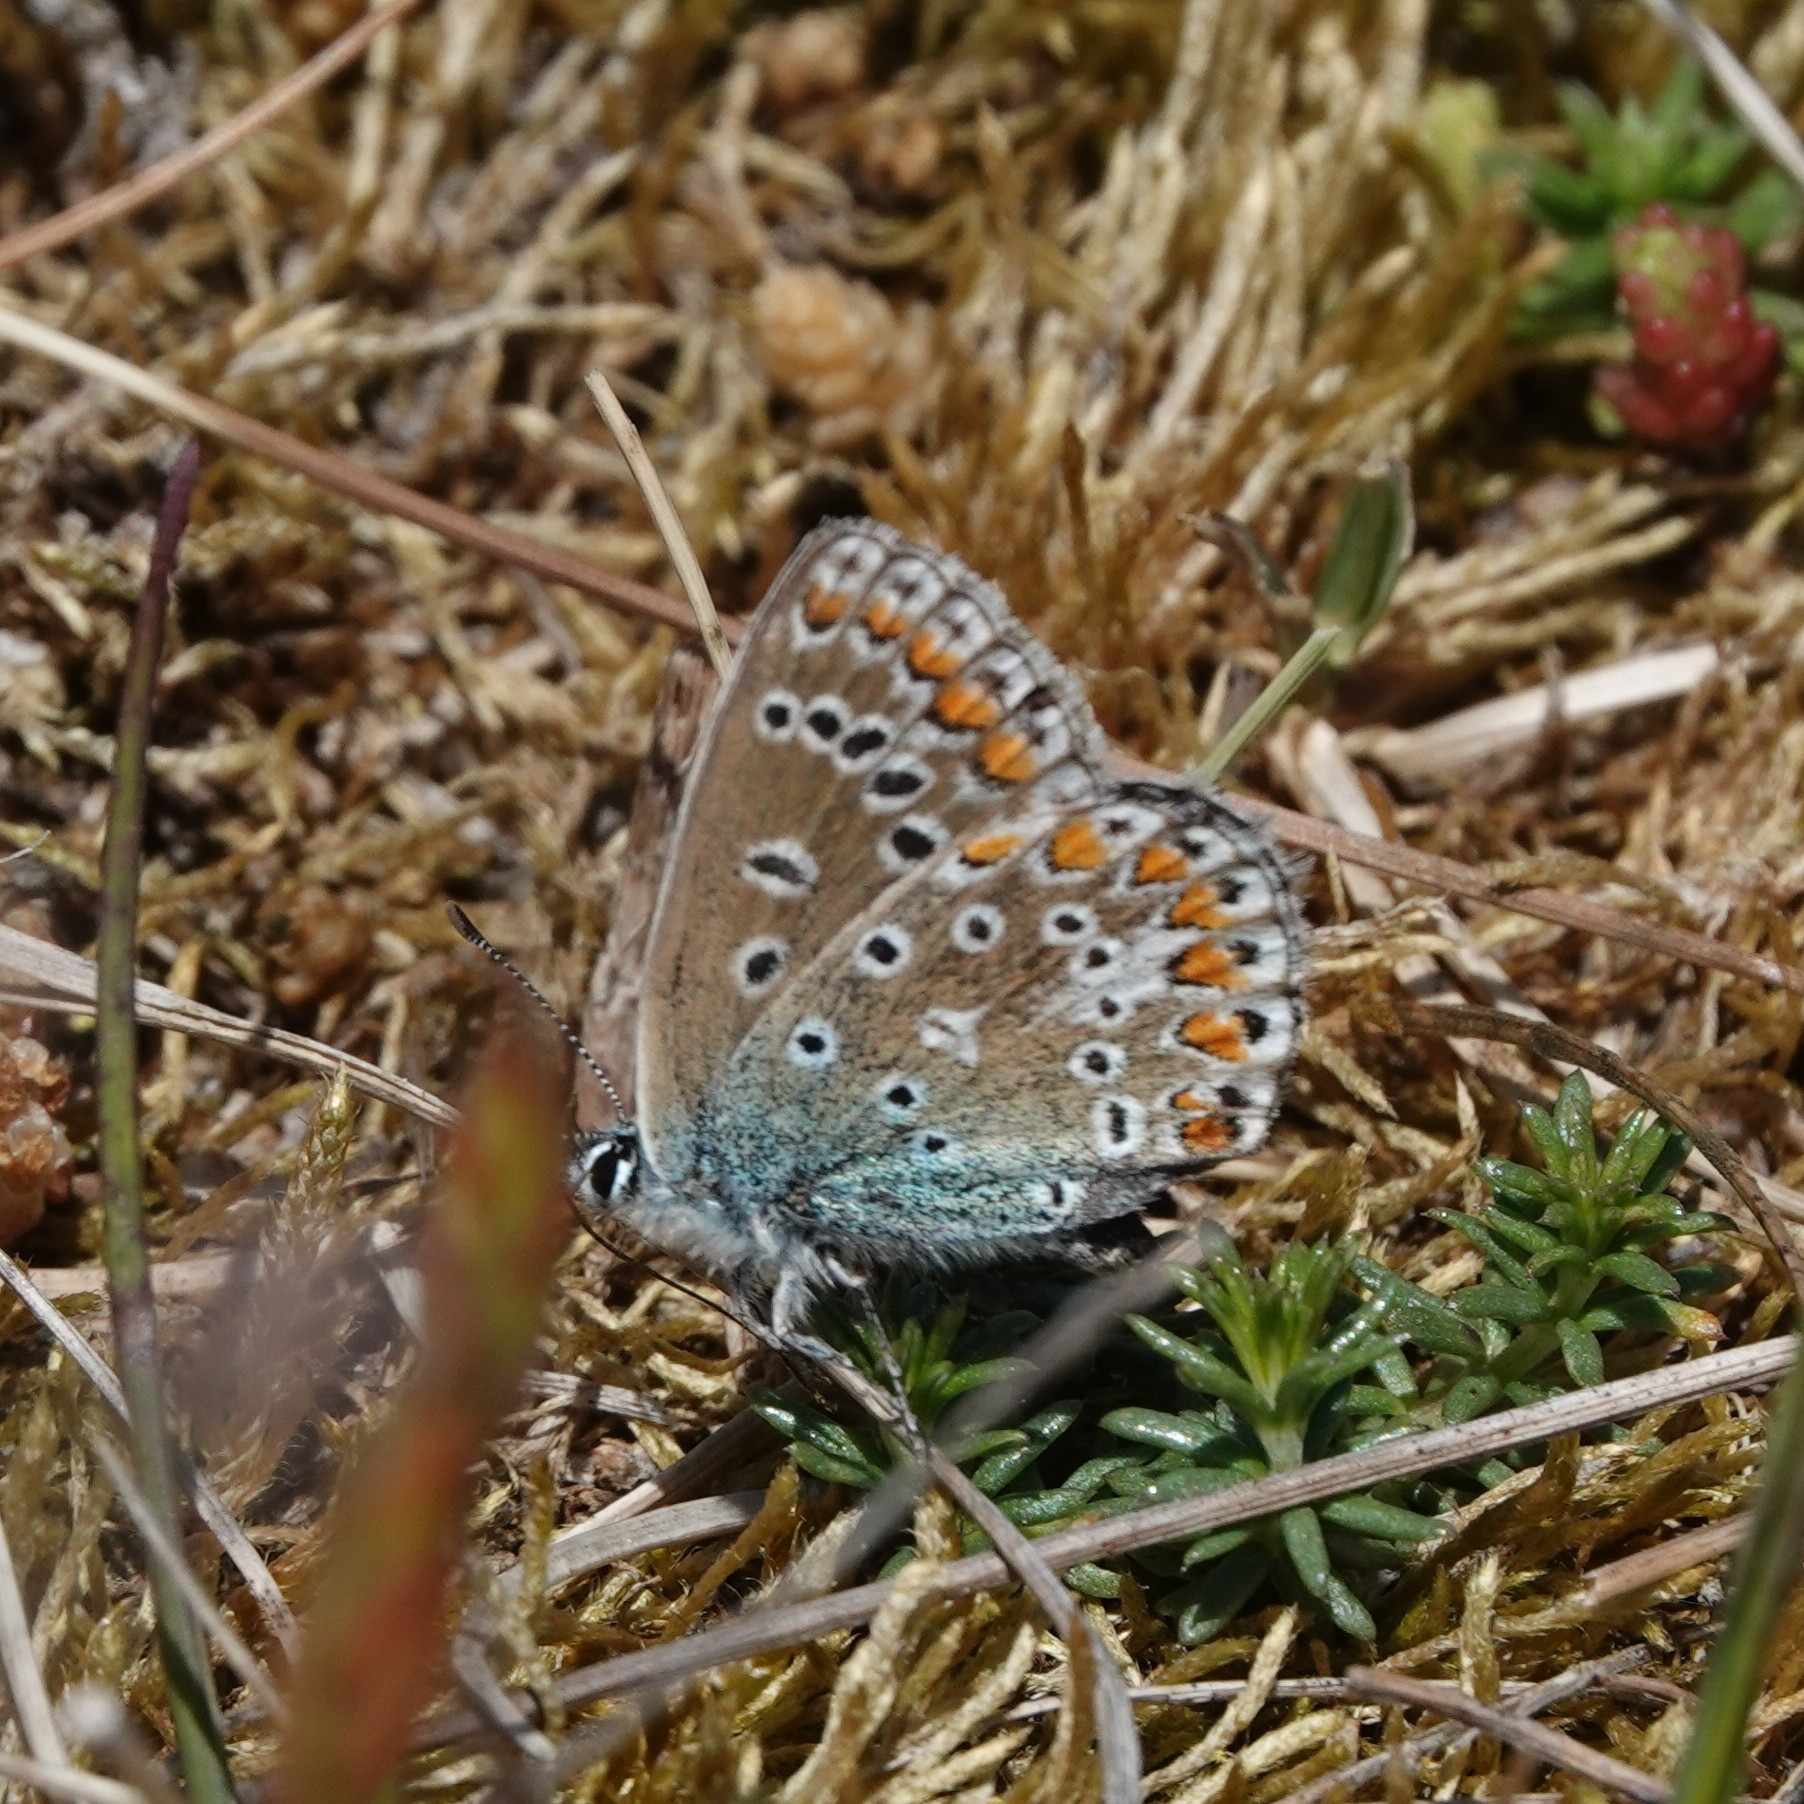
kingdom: Animalia
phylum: Arthropoda
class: Insecta
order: Lepidoptera
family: Lycaenidae
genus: Polyommatus
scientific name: Polyommatus icarus
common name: Common blue
